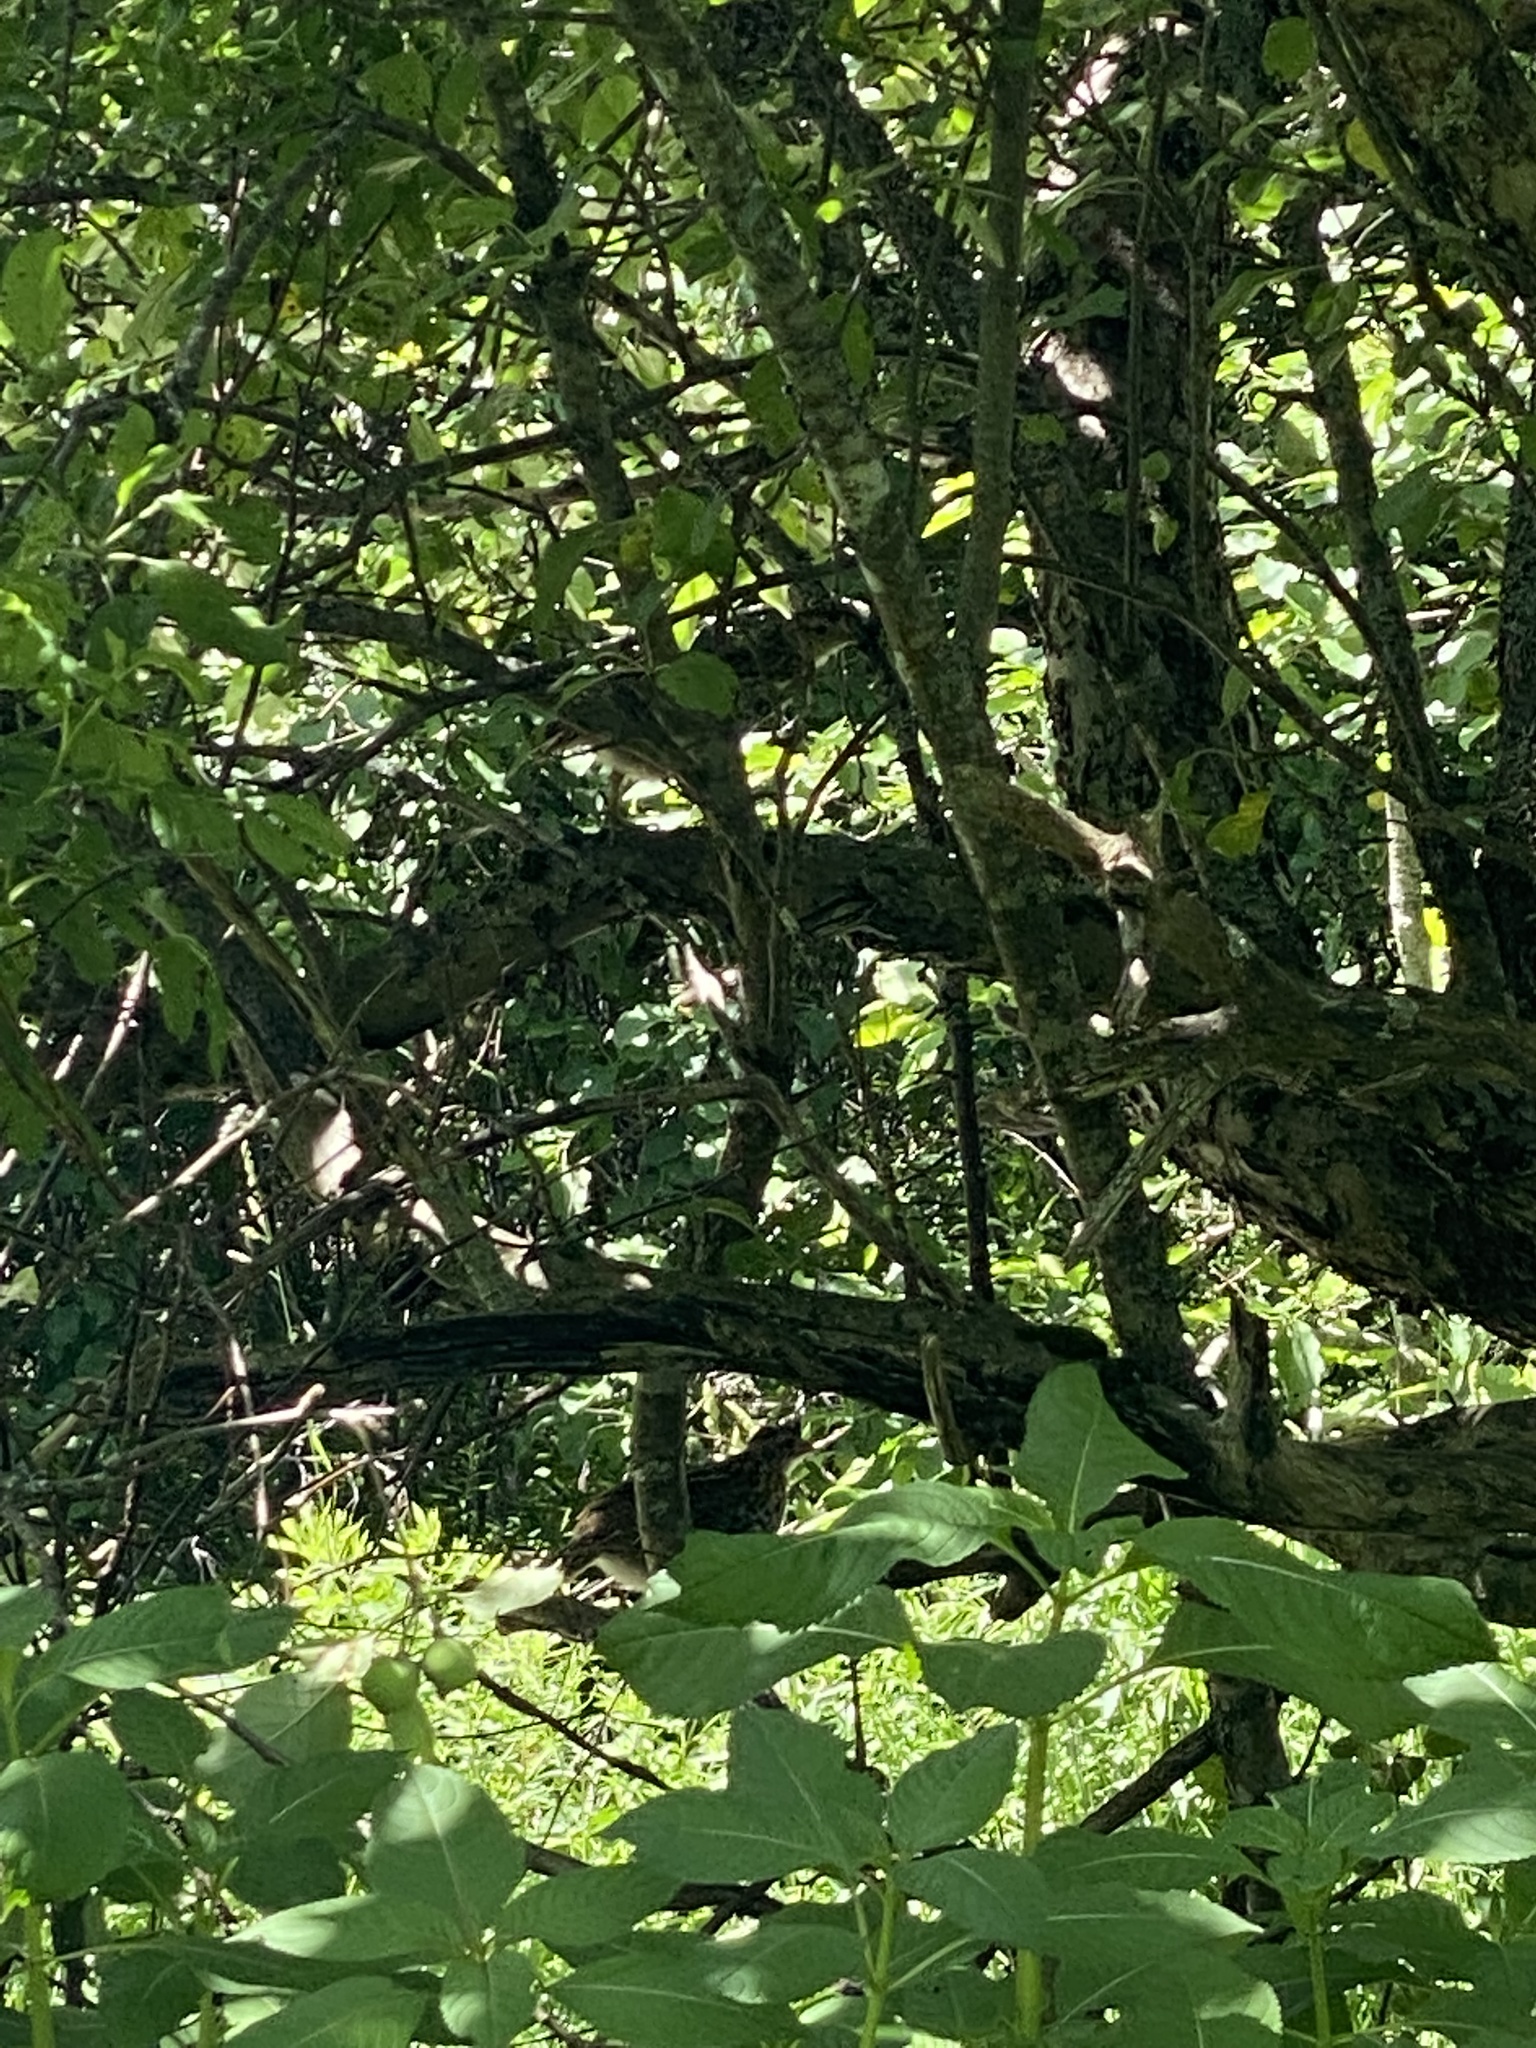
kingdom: Animalia
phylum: Chordata
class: Aves
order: Galliformes
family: Phasianidae
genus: Bonasa
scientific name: Bonasa umbellus
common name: Ruffed grouse
